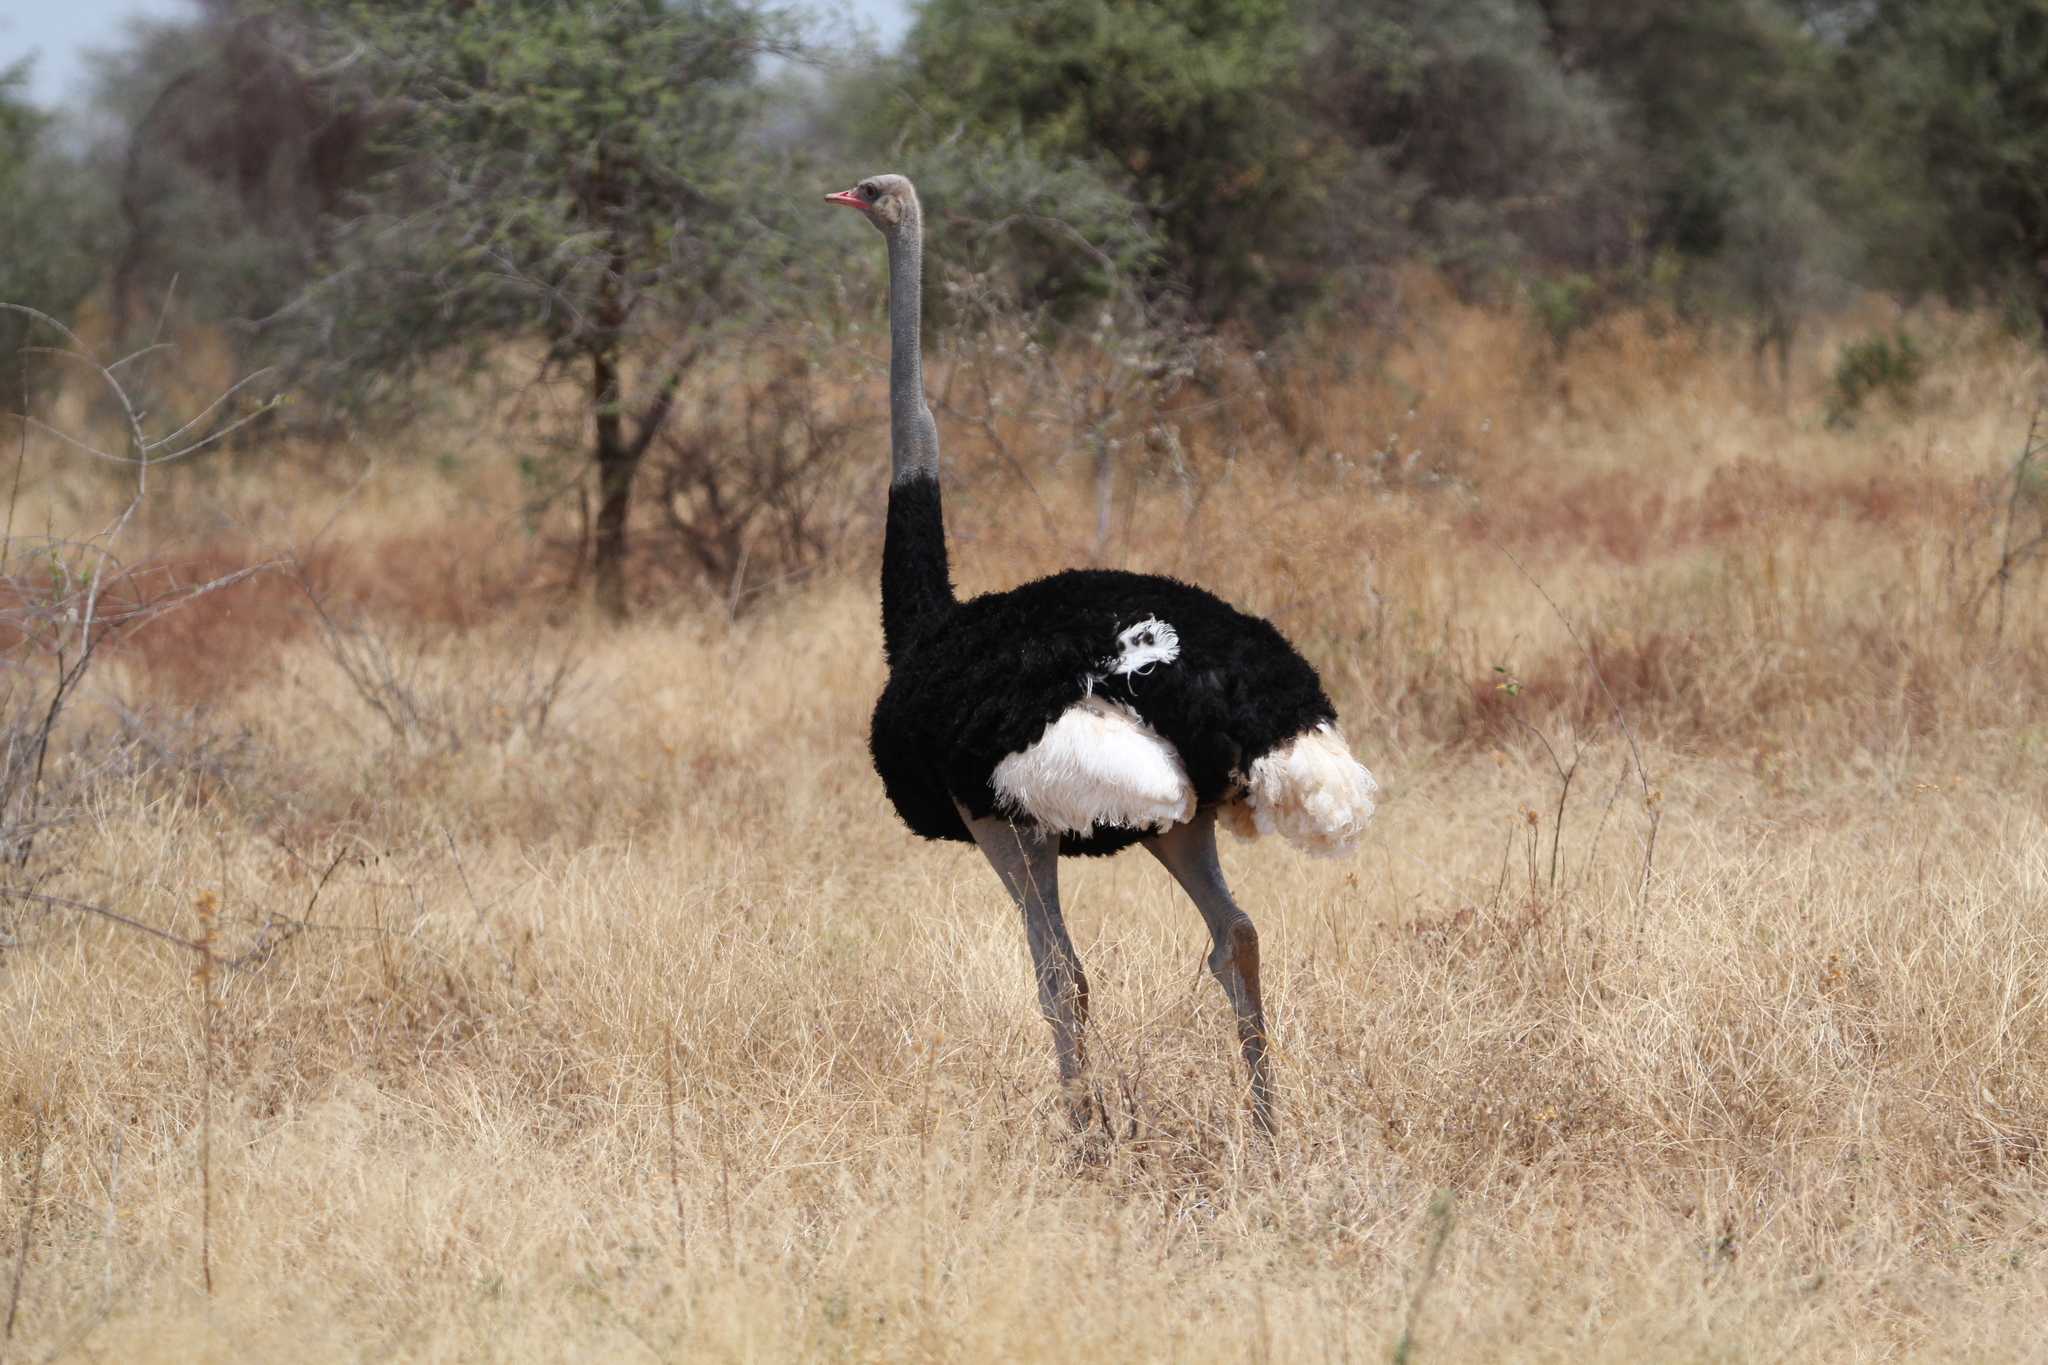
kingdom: Animalia
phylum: Chordata
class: Aves
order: Struthioniformes
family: Struthionidae
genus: Struthio
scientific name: Struthio molybdophanes
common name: Somali ostrich
